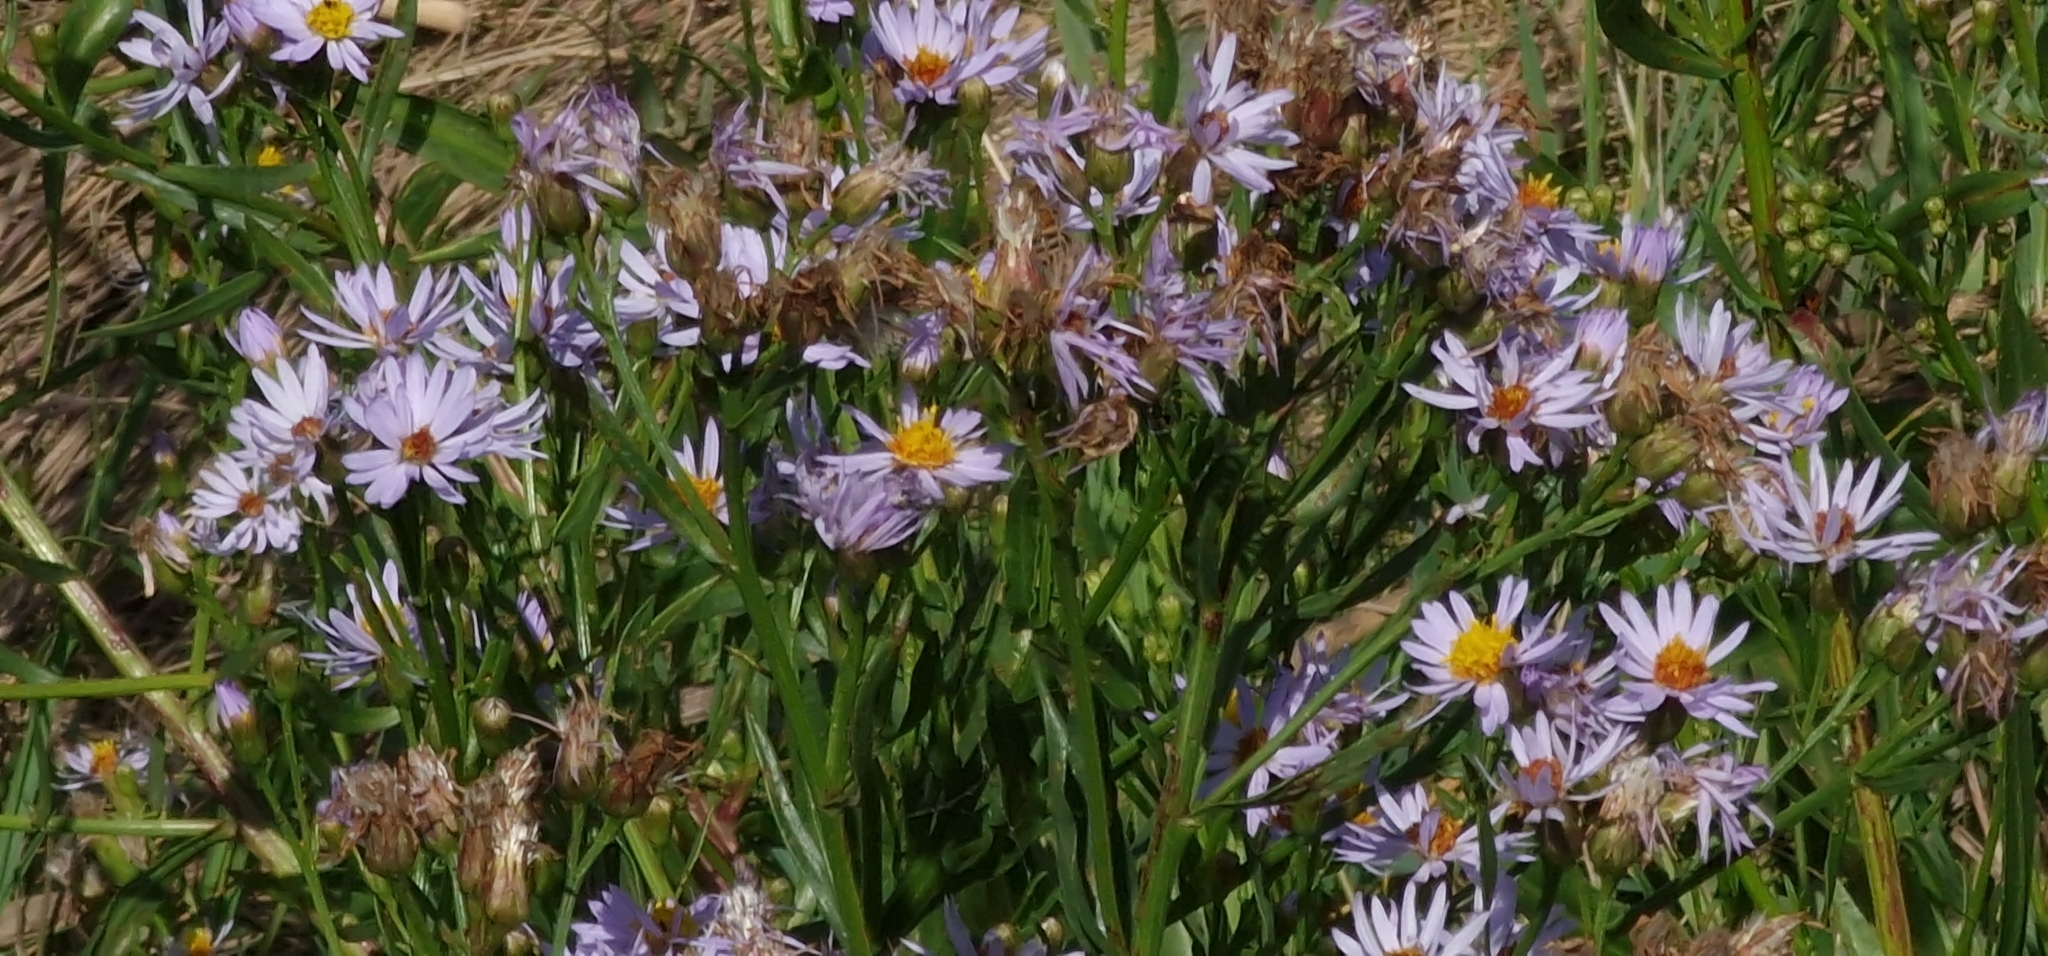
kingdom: Plantae
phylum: Tracheophyta
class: Magnoliopsida
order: Asterales
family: Asteraceae
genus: Tripolium
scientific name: Tripolium pannonicum
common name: Sea aster
